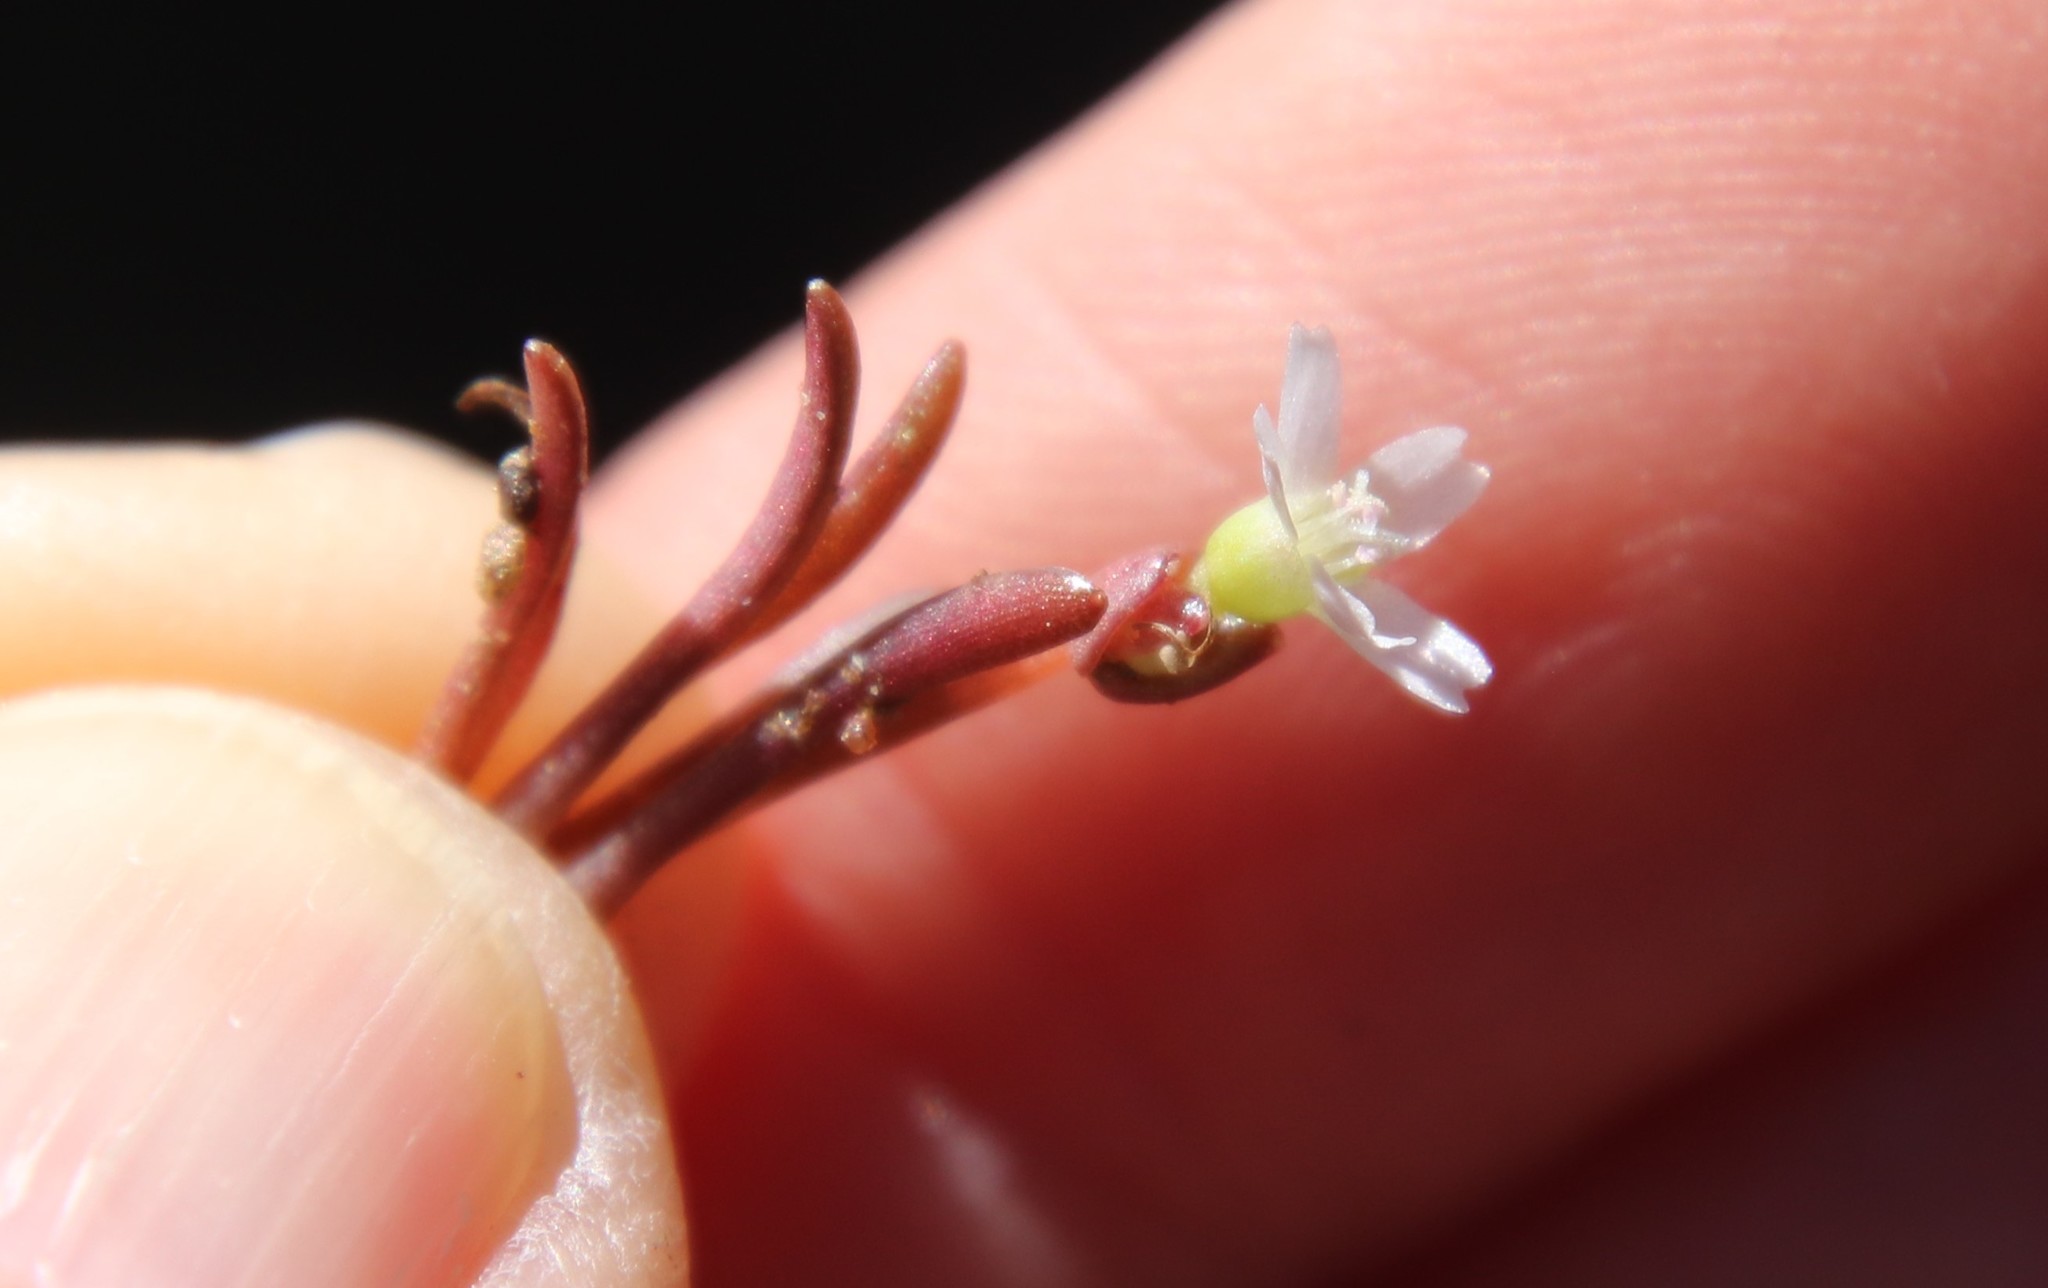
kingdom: Plantae
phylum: Tracheophyta
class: Magnoliopsida
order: Caryophyllales
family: Montiaceae
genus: Claytonia
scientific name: Claytonia parviflora
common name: Indian-lettuce
